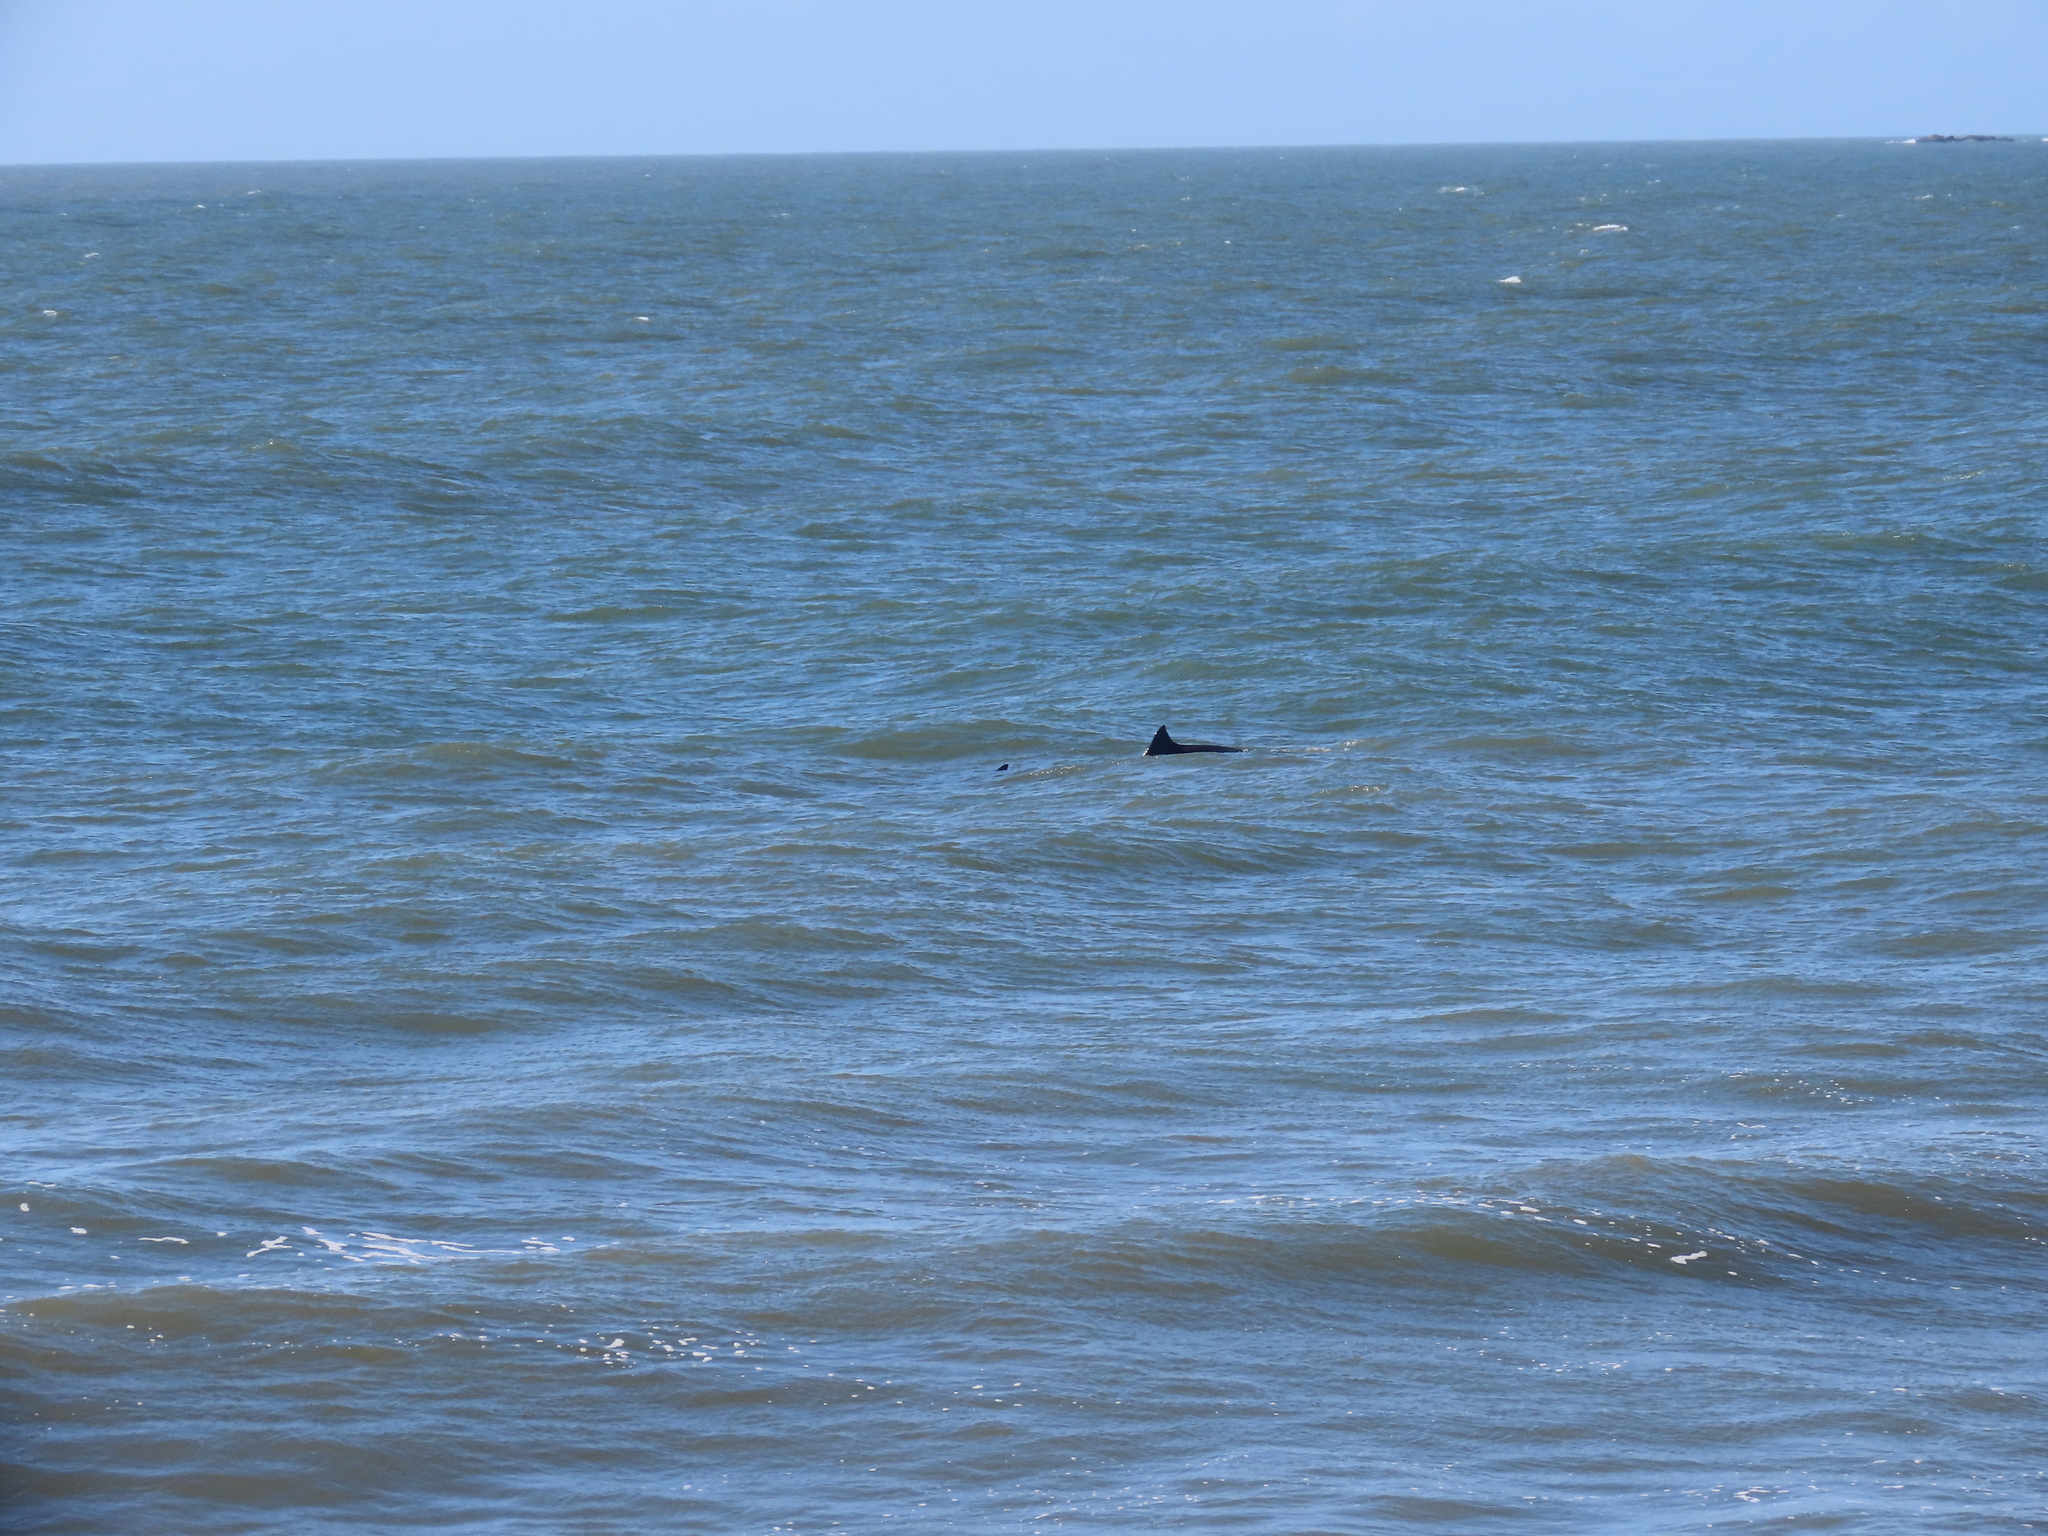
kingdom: Animalia
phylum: Chordata
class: Mammalia
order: Cetacea
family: Delphinidae
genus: Tursiops
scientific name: Tursiops truncatus
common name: Bottlenose dolphin
